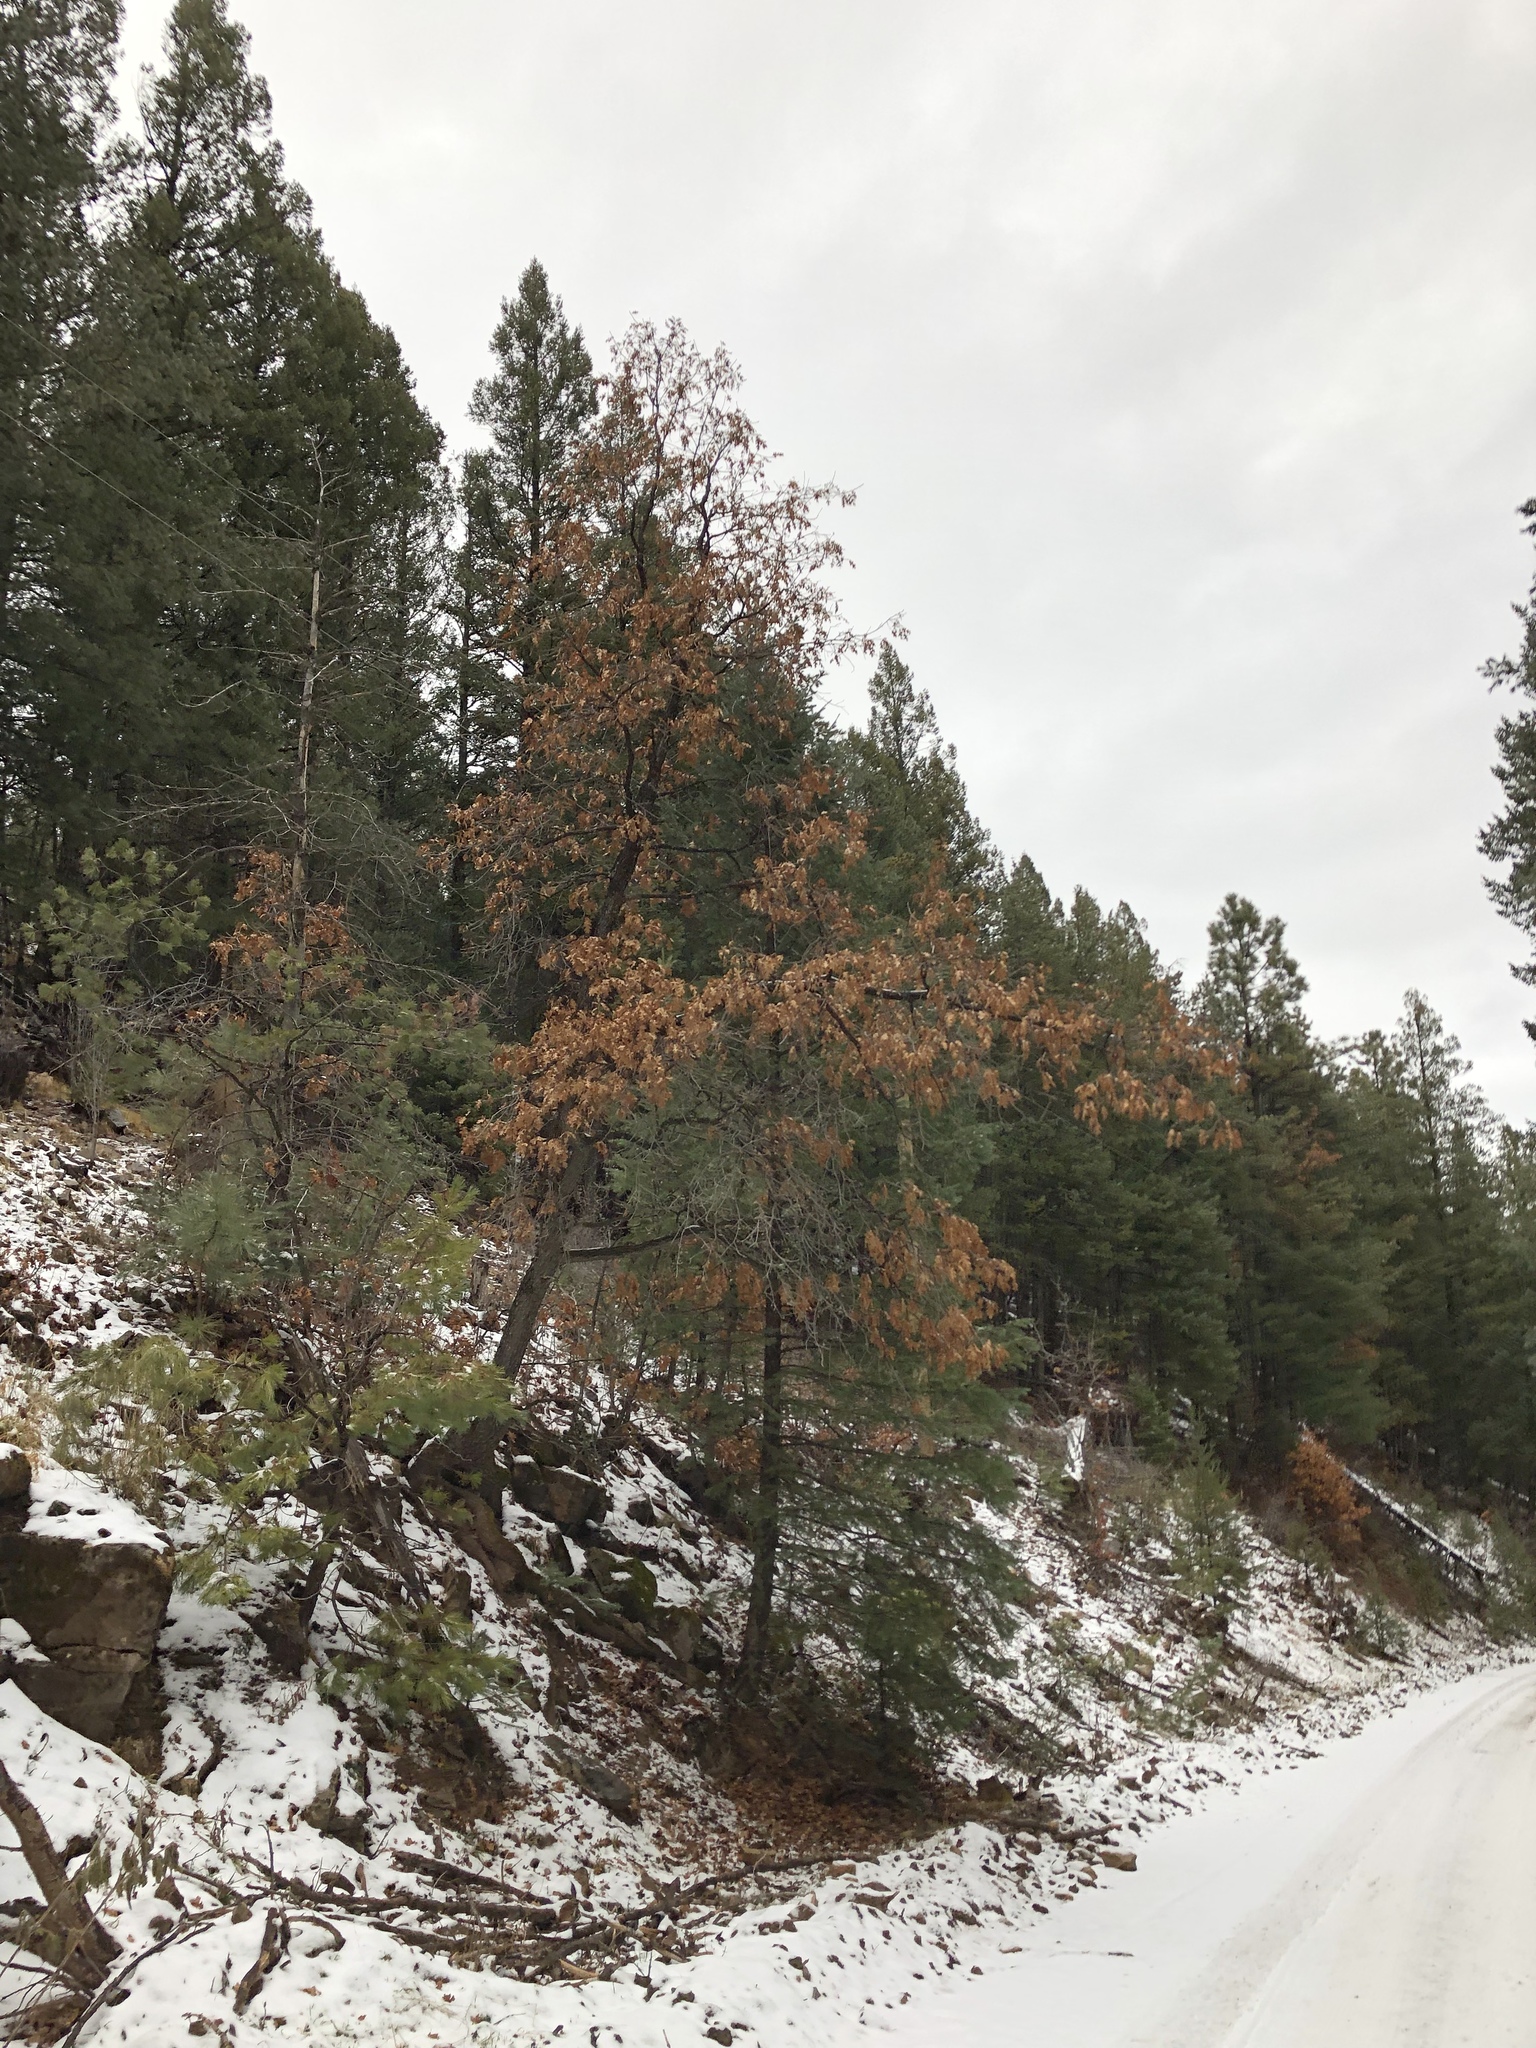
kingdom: Plantae
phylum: Tracheophyta
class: Magnoliopsida
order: Fagales
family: Fagaceae
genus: Quercus
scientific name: Quercus gambelii
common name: Gambel oak
